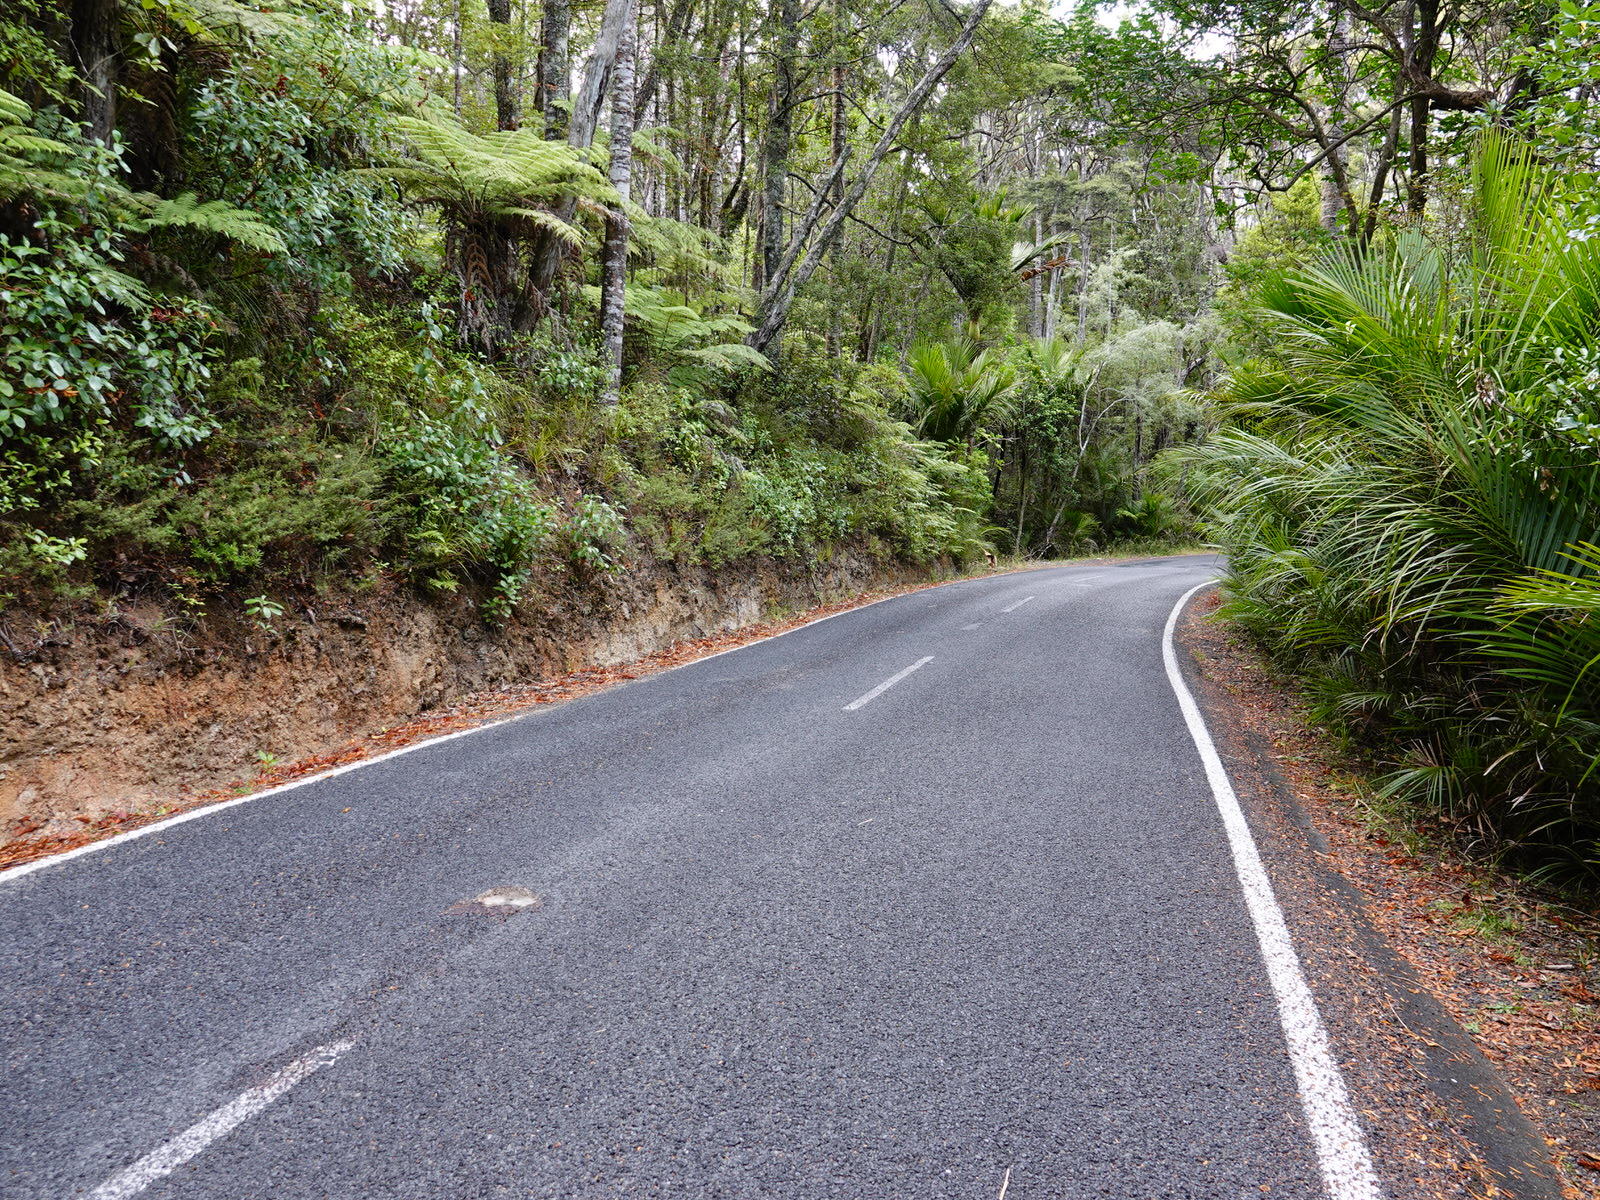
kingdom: Animalia
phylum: Chordata
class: Mammalia
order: Erinaceomorpha
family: Erinaceidae
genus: Erinaceus
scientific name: Erinaceus europaeus
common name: West european hedgehog
